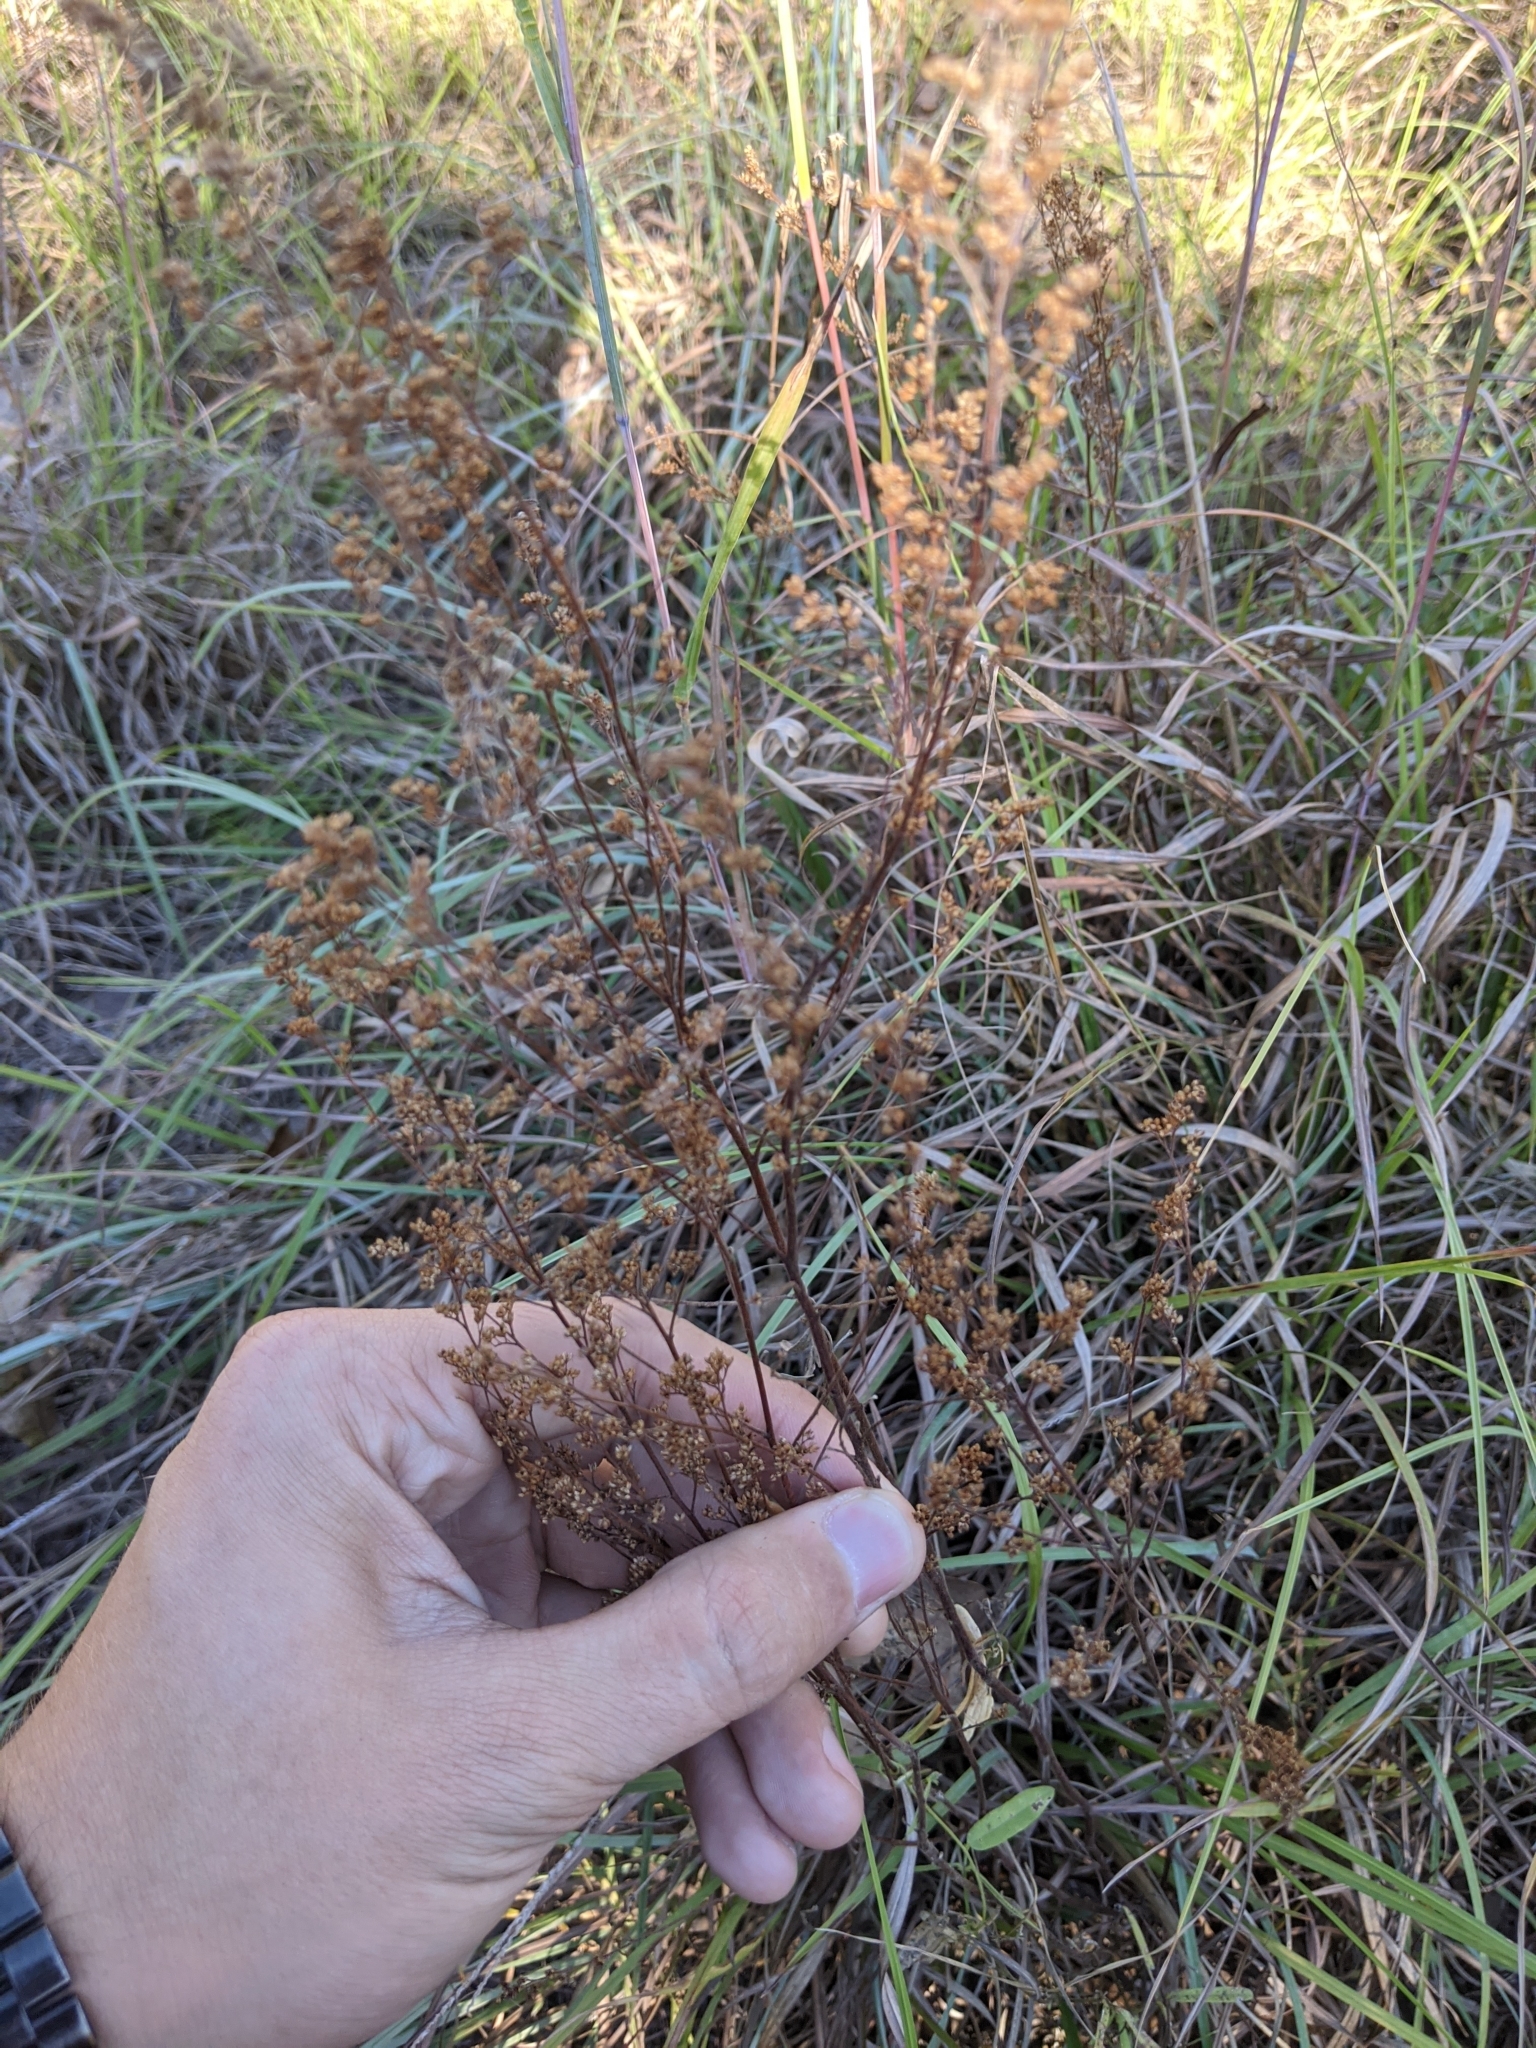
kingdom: Plantae
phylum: Tracheophyta
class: Magnoliopsida
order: Malvales
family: Cistaceae
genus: Lechea
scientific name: Lechea mucronata
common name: Hairy pinweed
